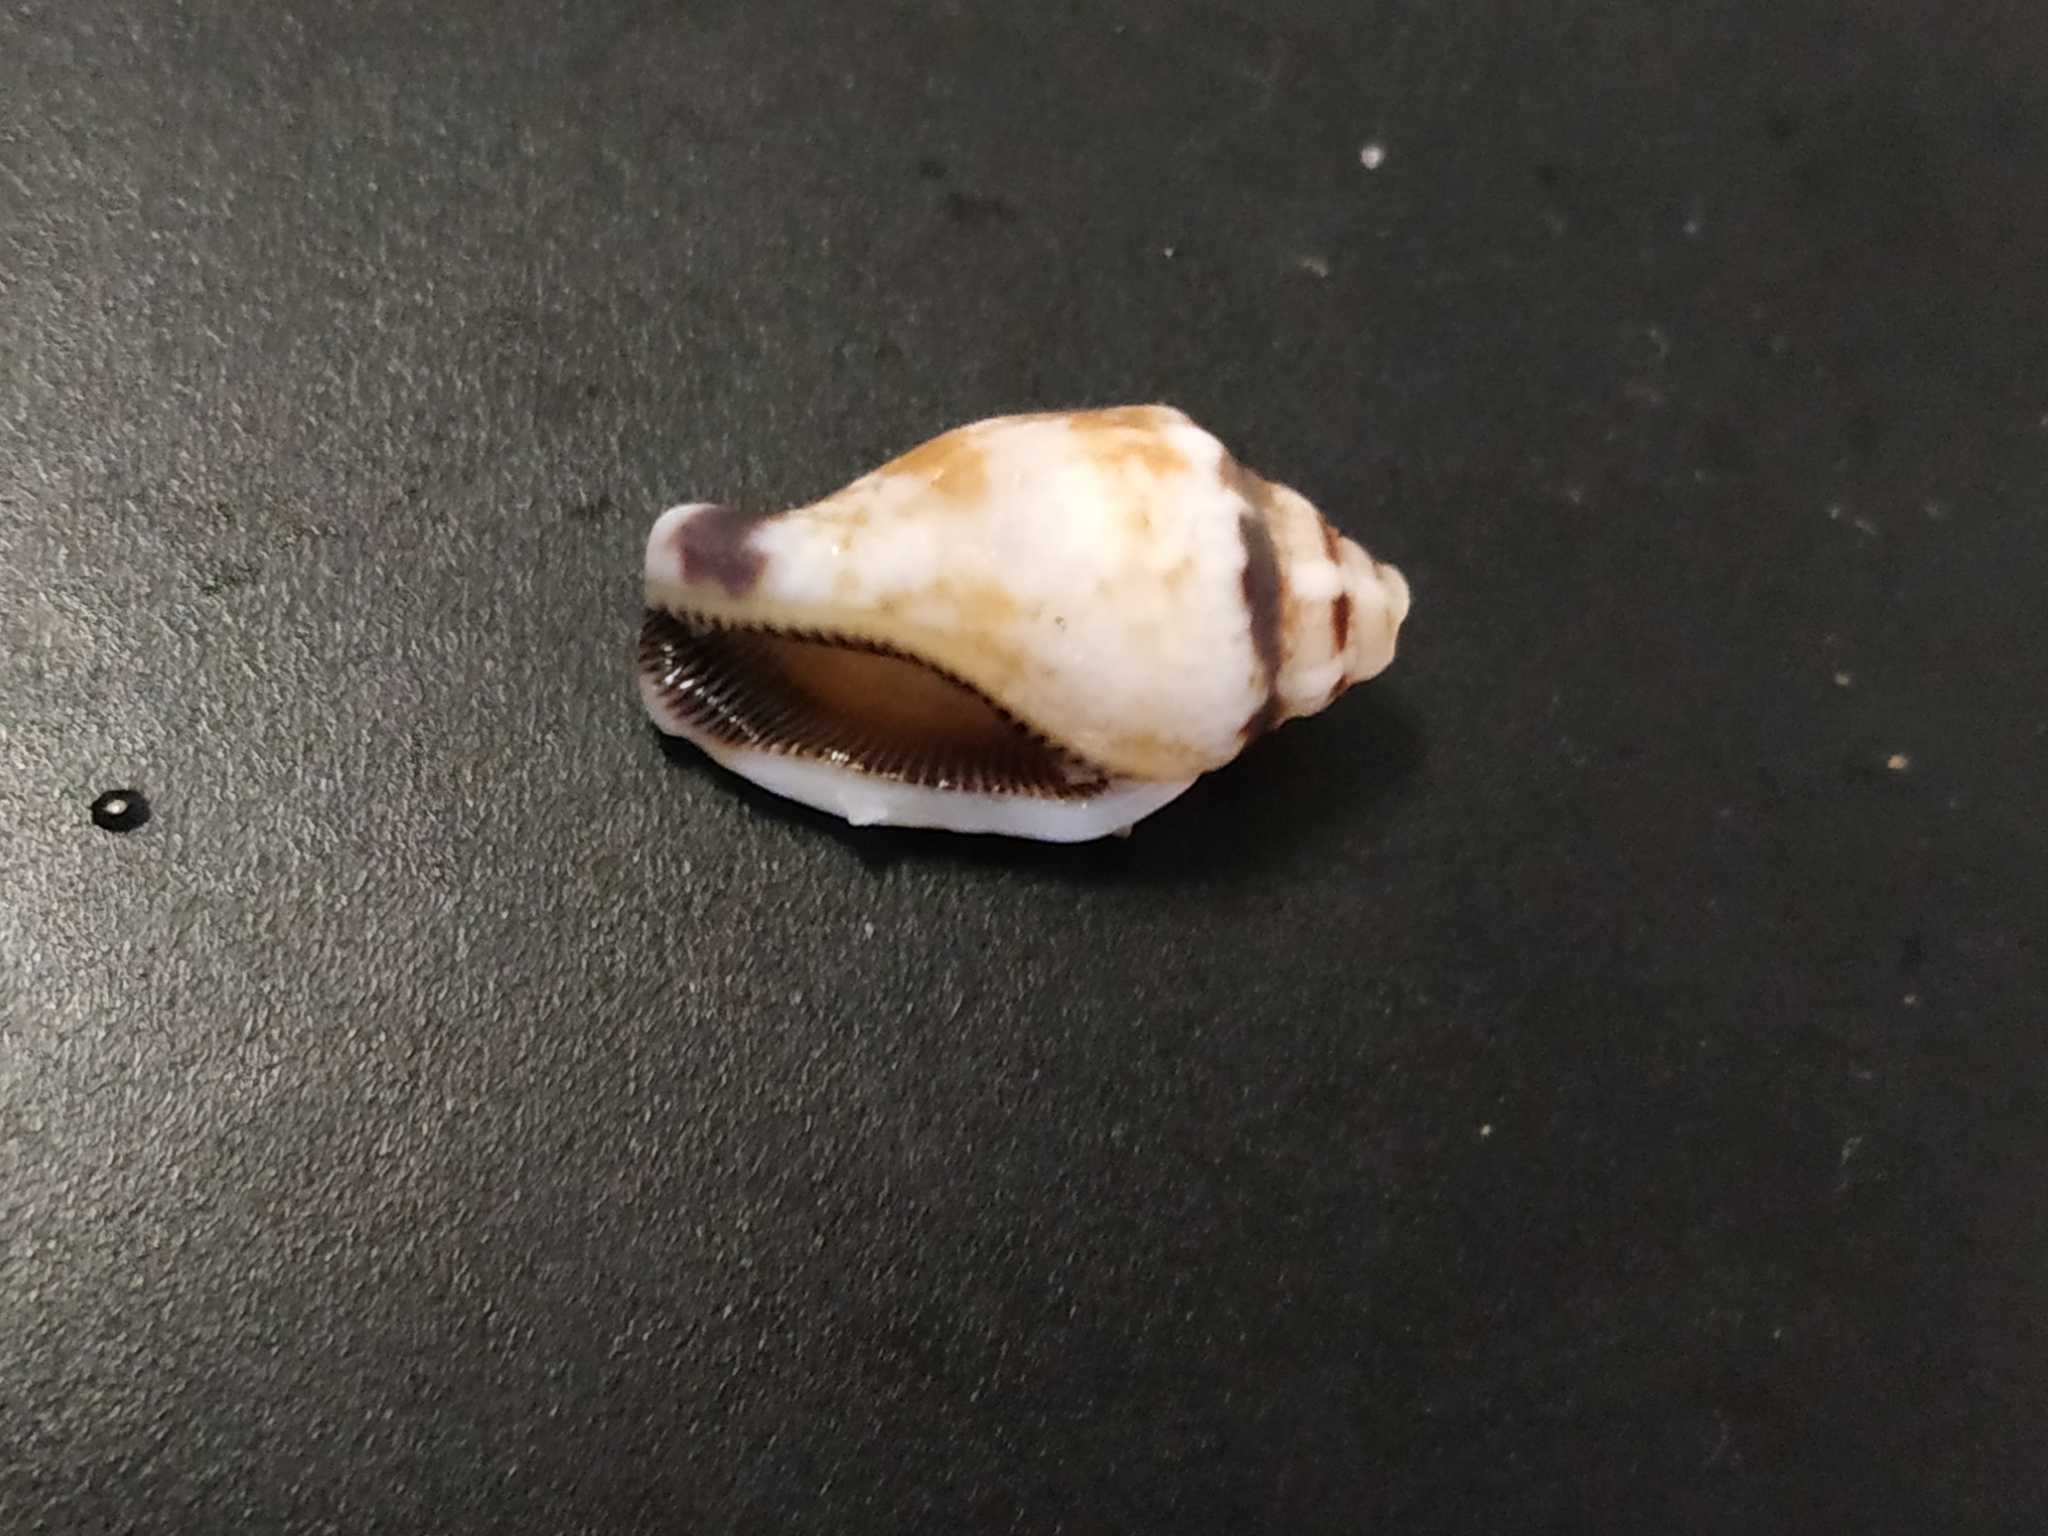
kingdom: Animalia
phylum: Mollusca
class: Gastropoda
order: Littorinimorpha
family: Strombidae
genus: Canarium
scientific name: Canarium microurceum
